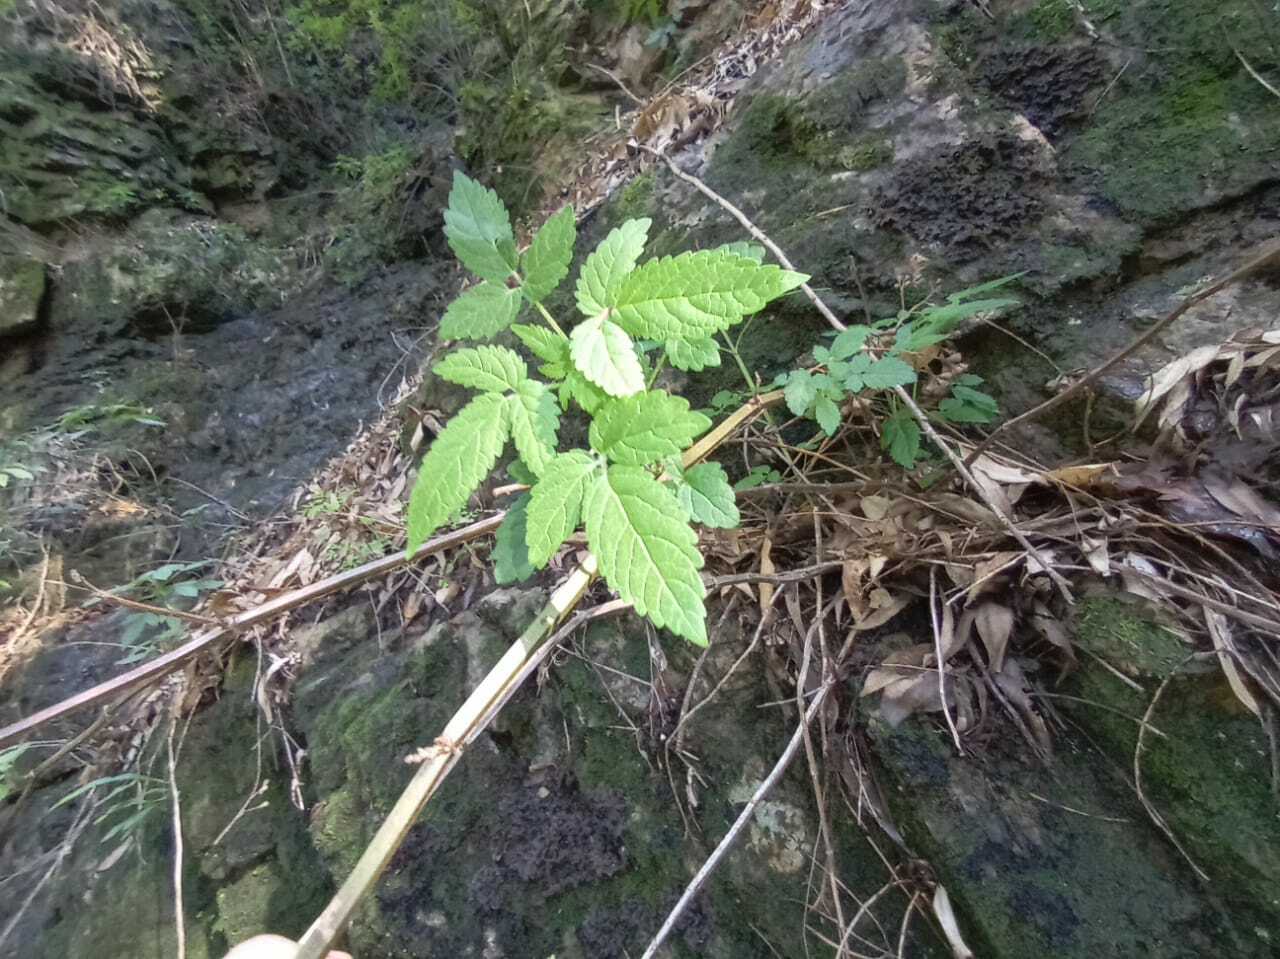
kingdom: Plantae
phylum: Tracheophyta
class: Magnoliopsida
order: Lamiales
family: Lamiaceae
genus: Cedronella
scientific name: Cedronella canariensis
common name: Canary islands balm
